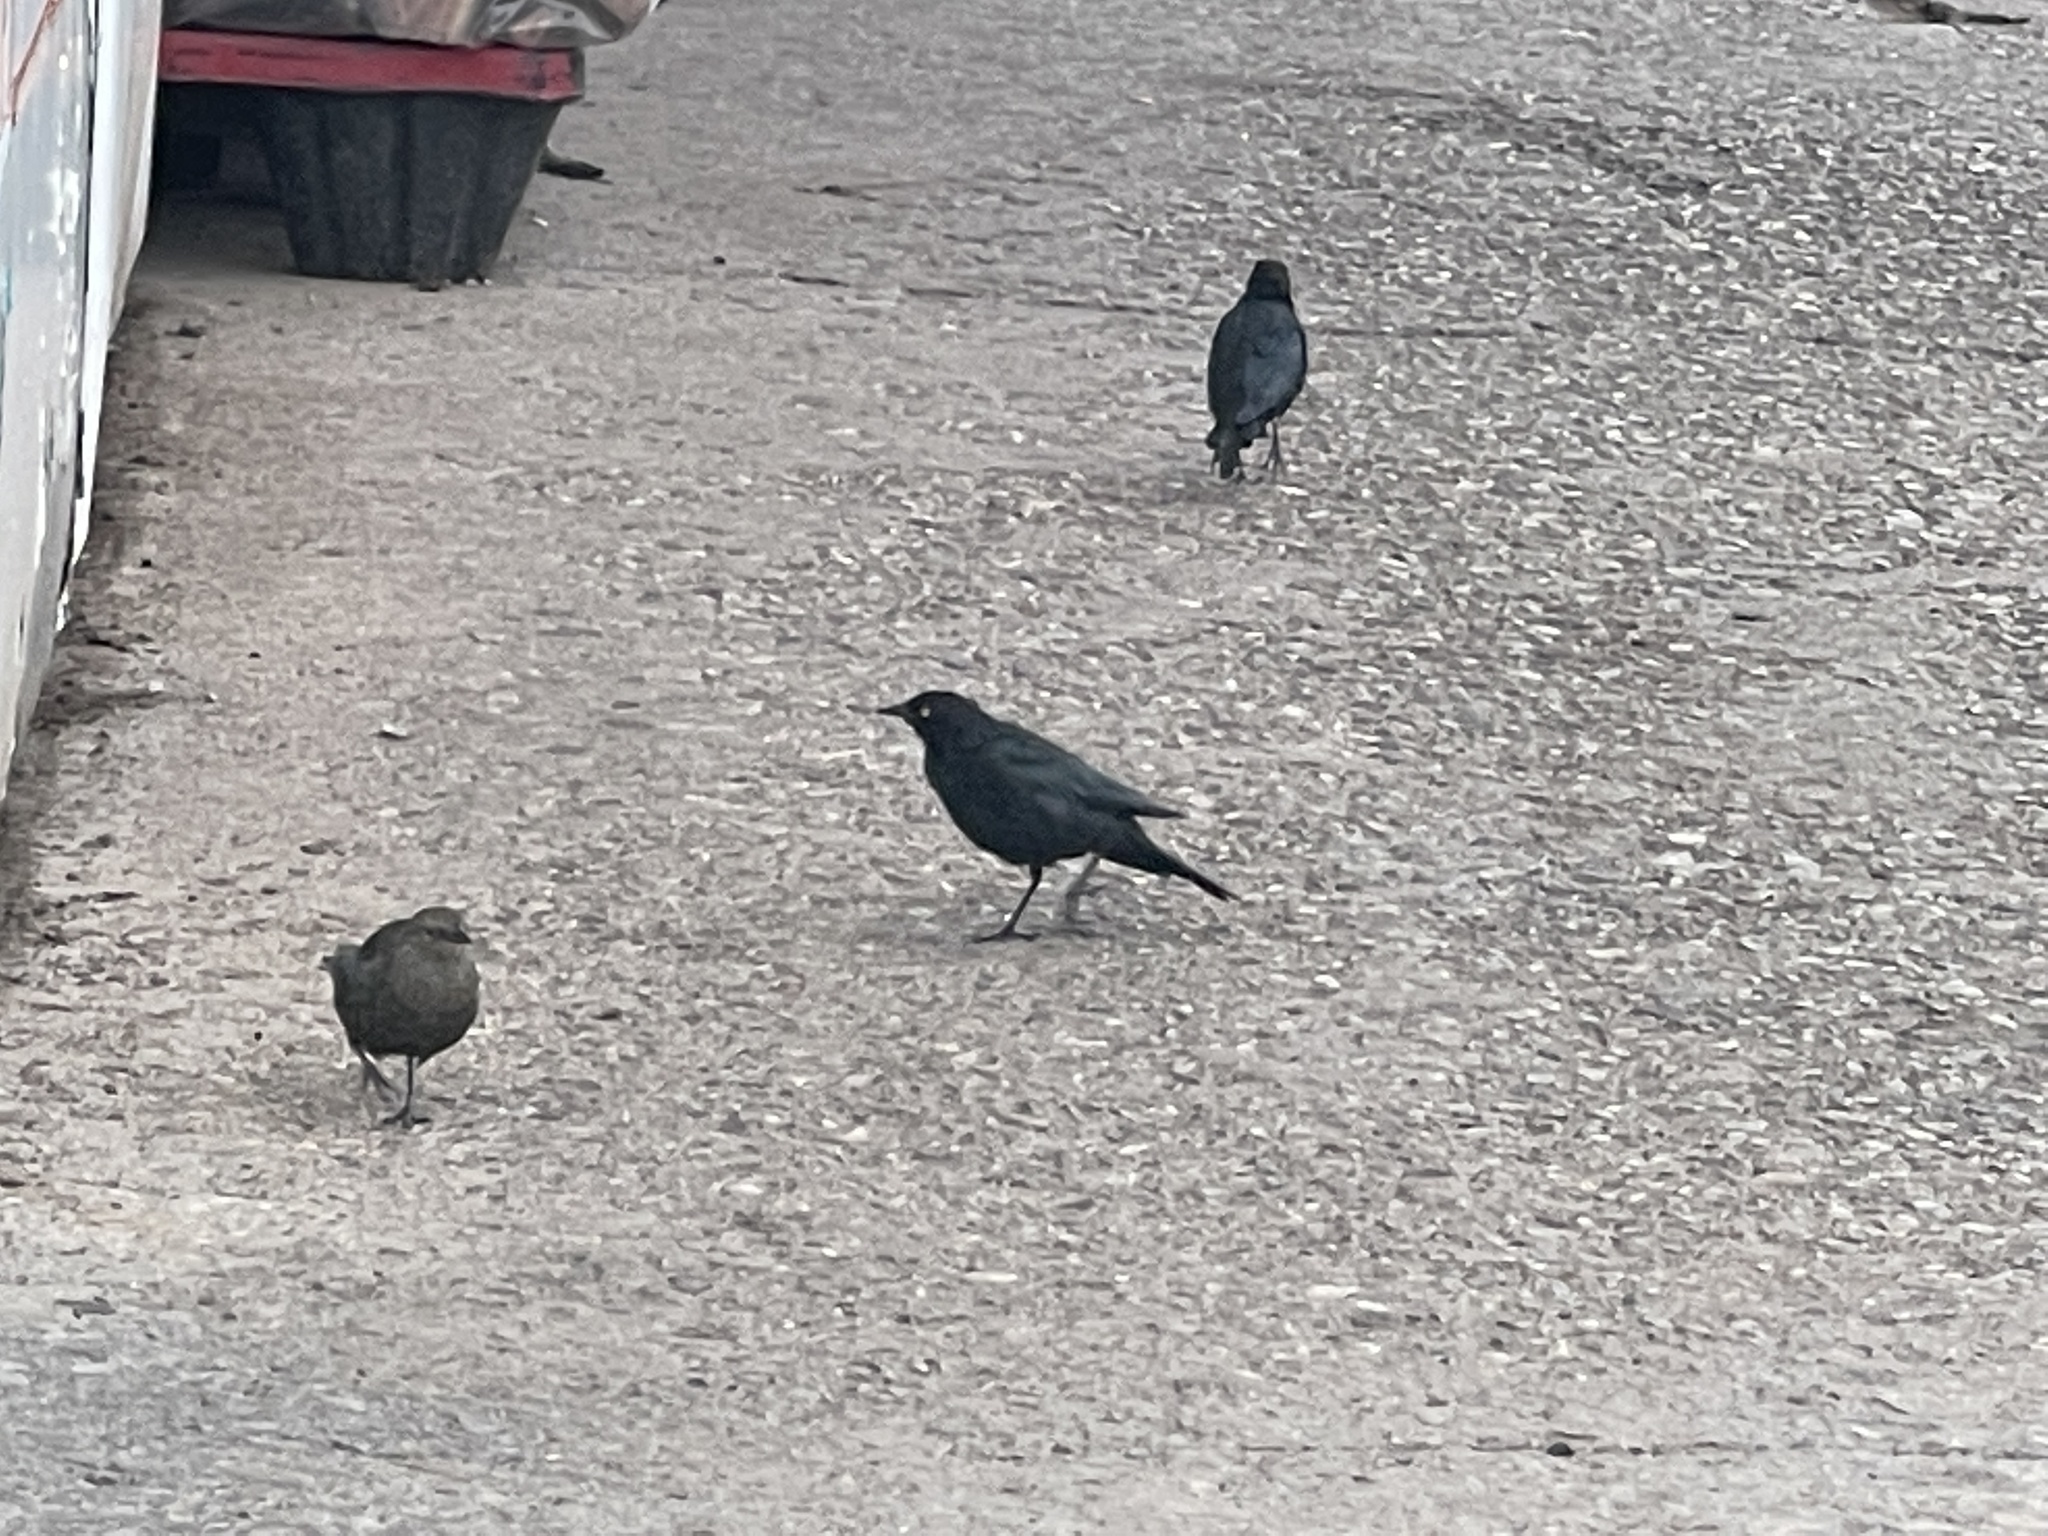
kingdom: Animalia
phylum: Chordata
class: Aves
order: Passeriformes
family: Icteridae
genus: Euphagus
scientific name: Euphagus cyanocephalus
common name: Brewer's blackbird
